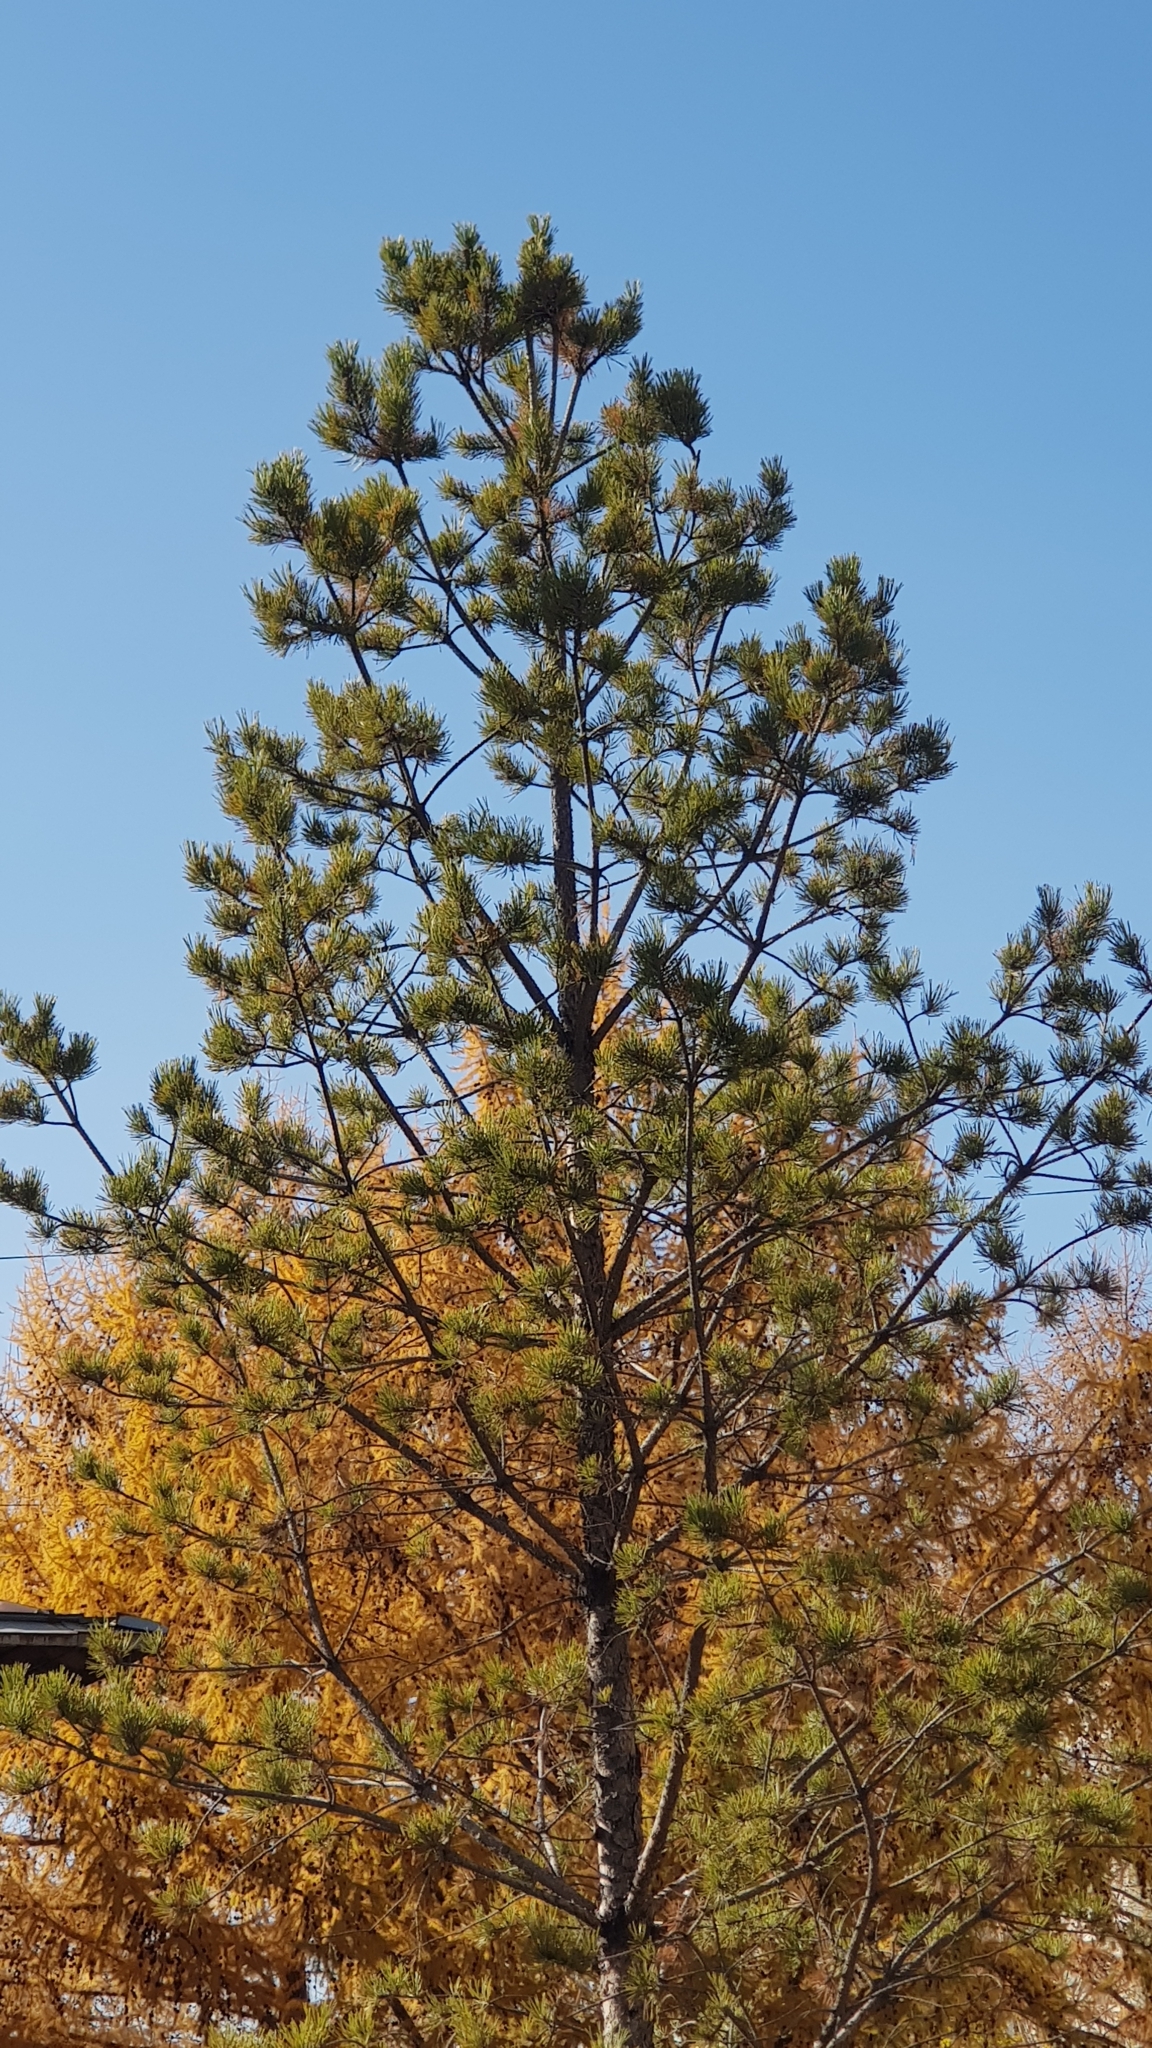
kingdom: Plantae
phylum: Tracheophyta
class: Pinopsida
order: Pinales
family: Pinaceae
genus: Pinus
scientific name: Pinus sylvestris
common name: Scots pine
